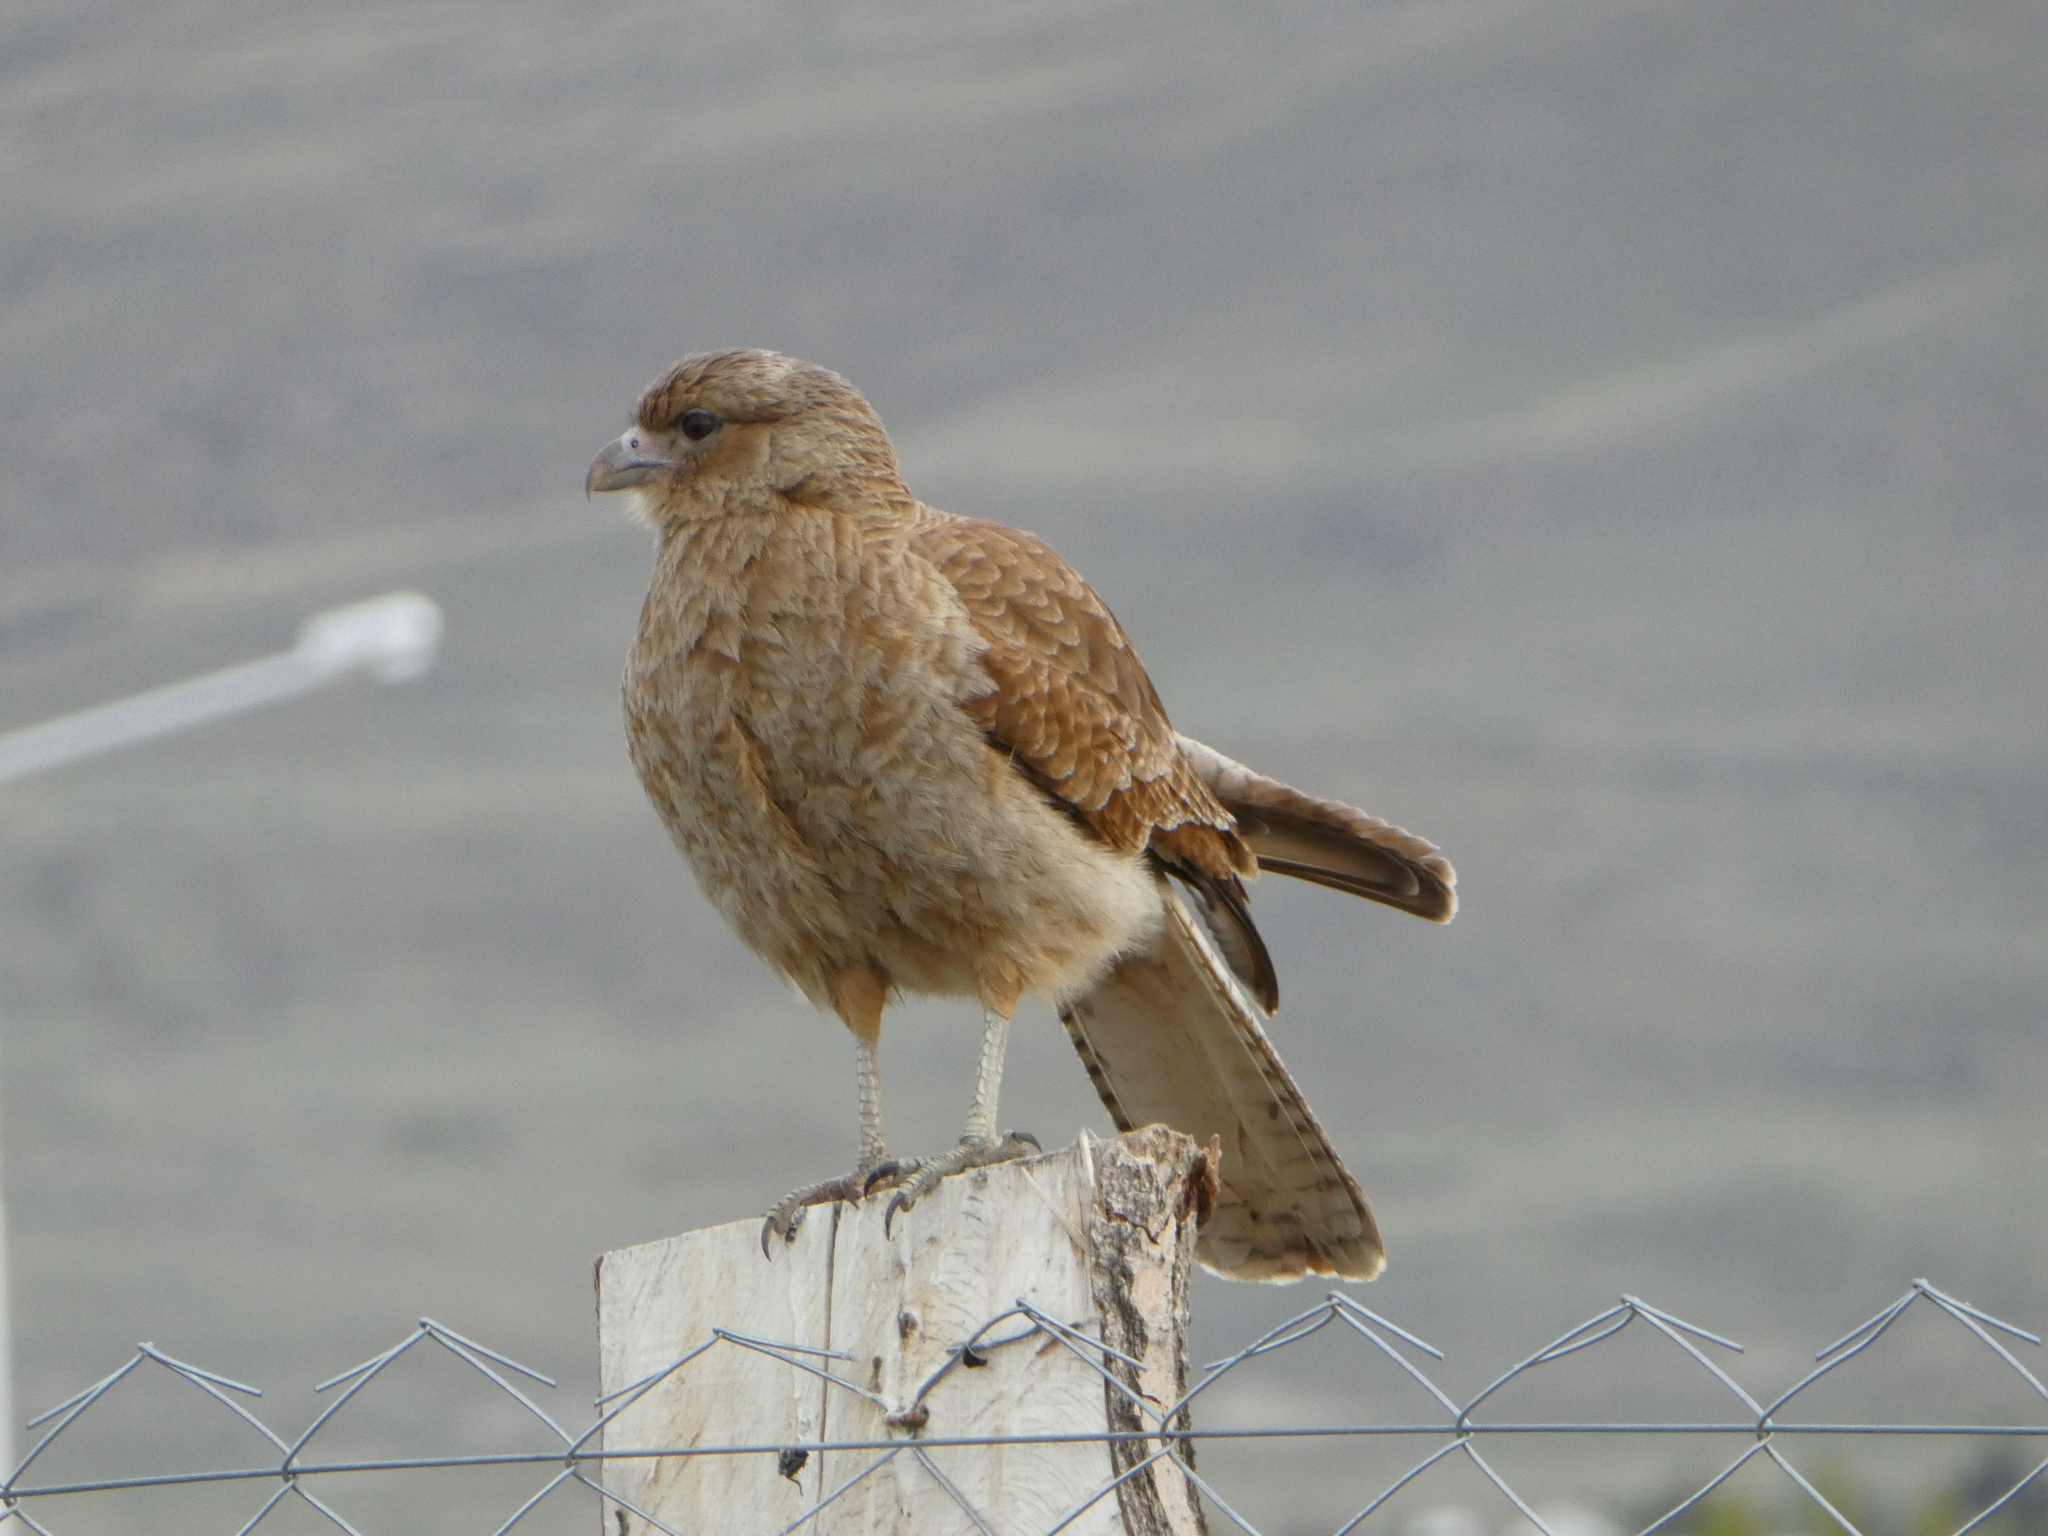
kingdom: Animalia
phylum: Chordata
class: Aves
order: Falconiformes
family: Falconidae
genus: Daptrius
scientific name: Daptrius
